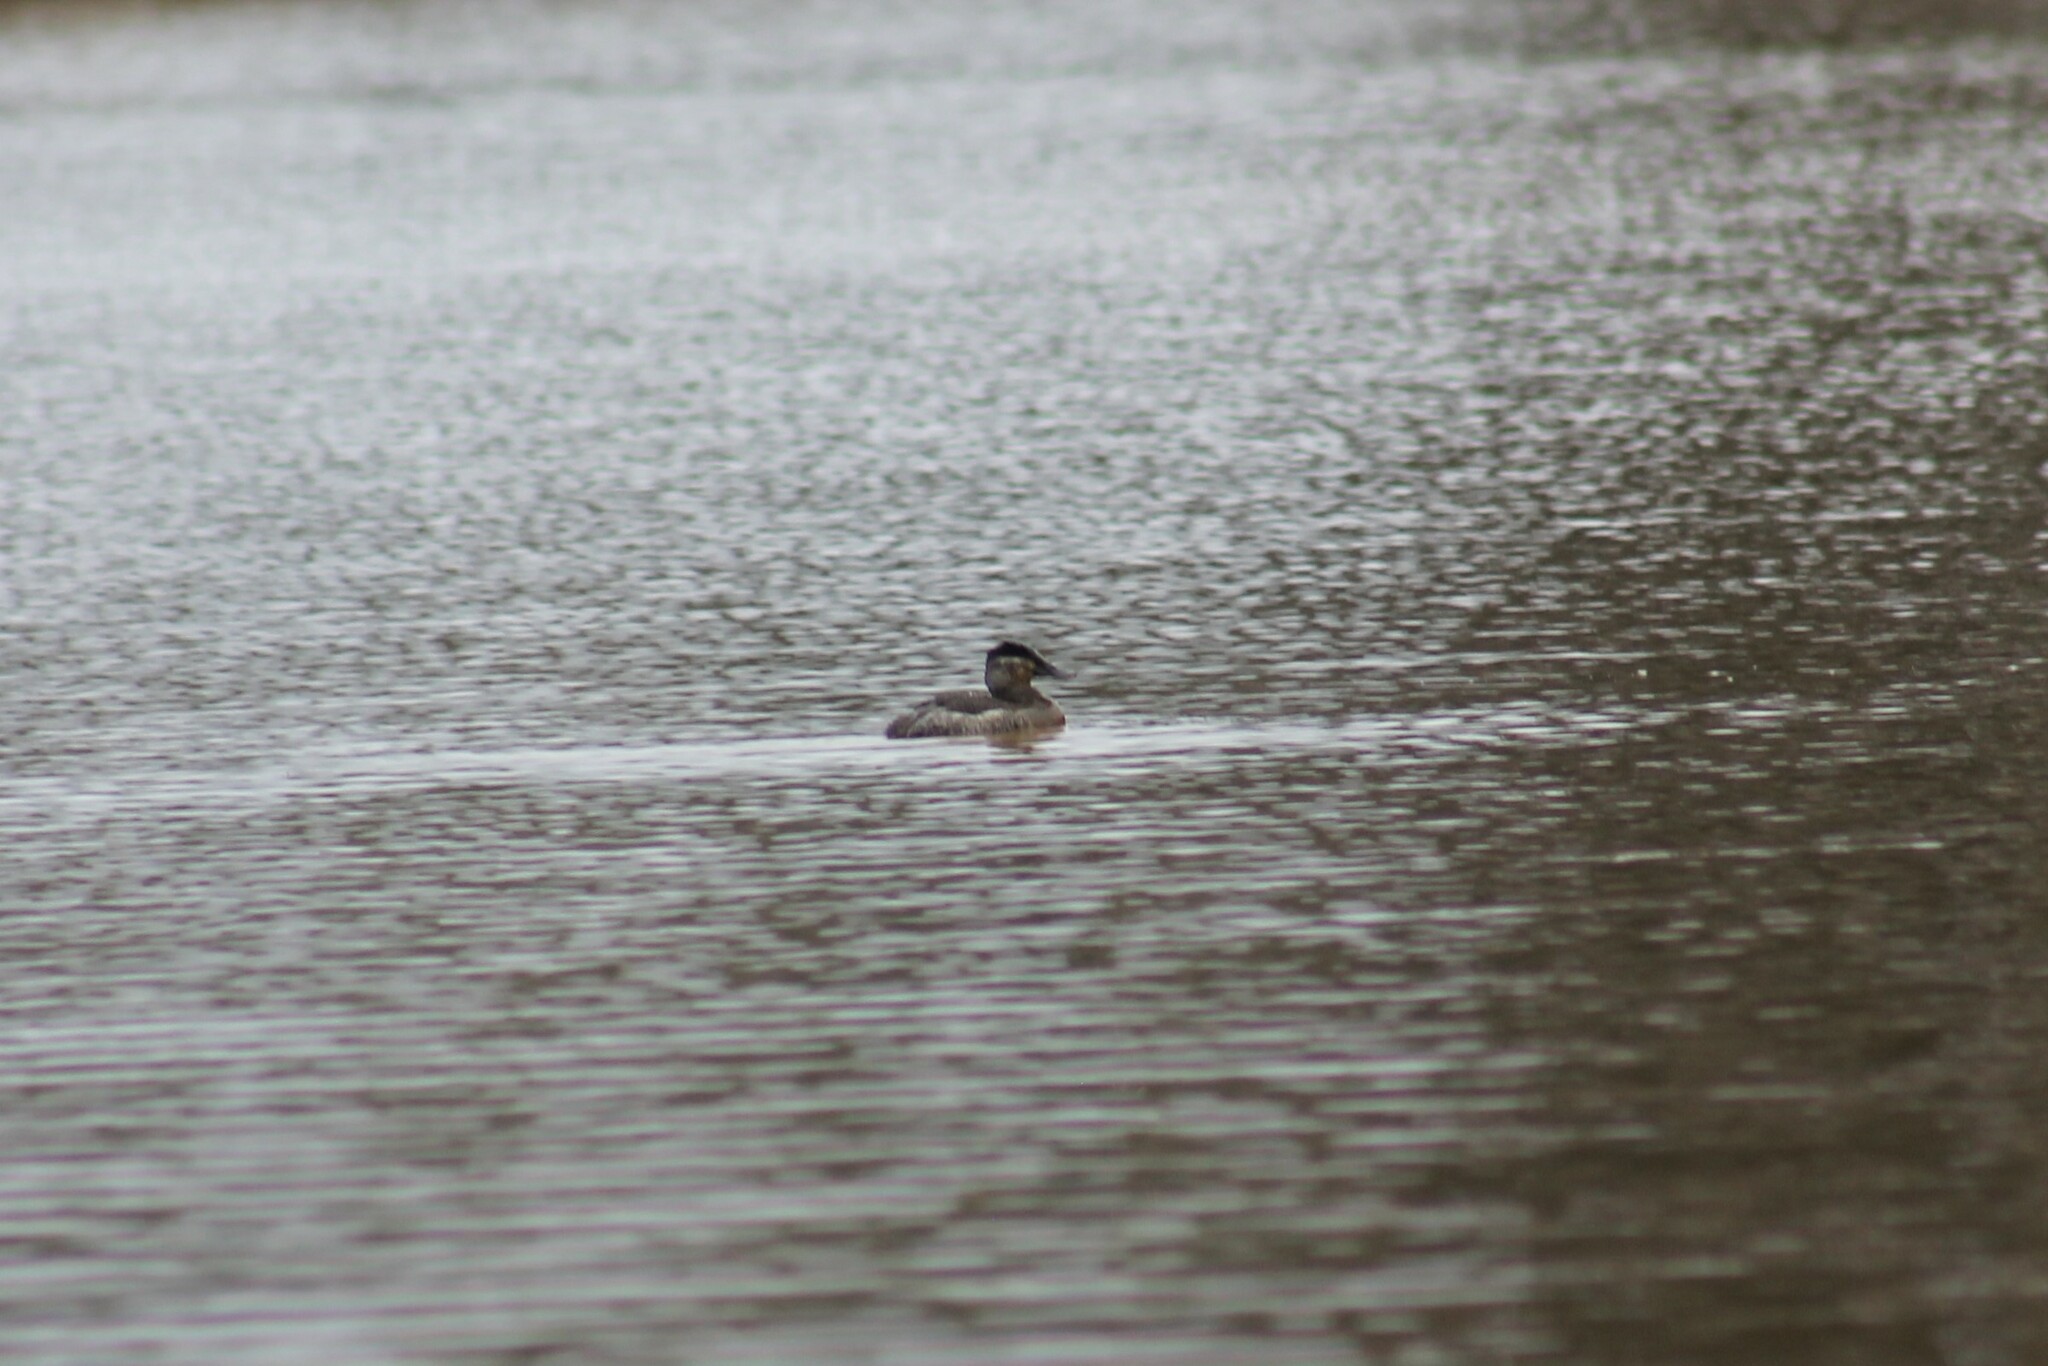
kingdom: Animalia
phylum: Chordata
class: Aves
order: Anseriformes
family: Anatidae
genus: Oxyura
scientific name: Oxyura jamaicensis
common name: Ruddy duck
